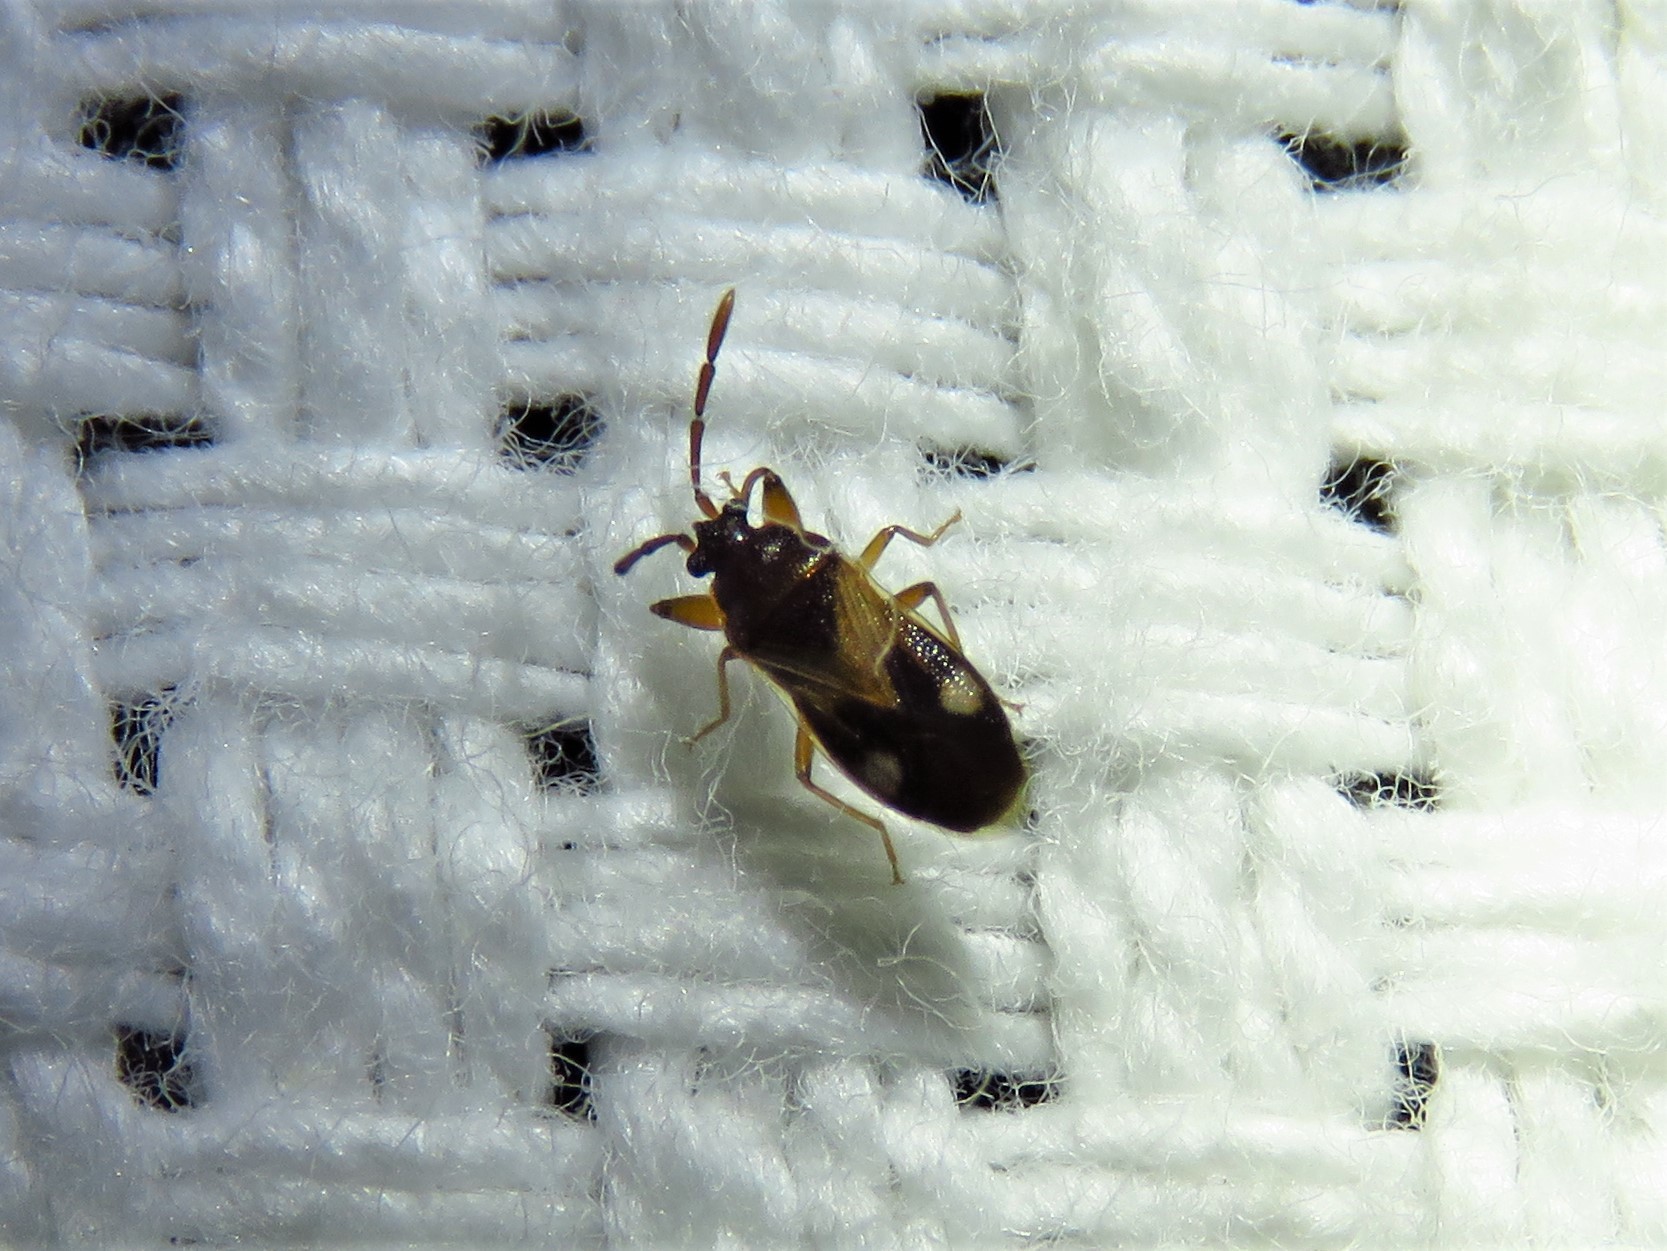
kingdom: Animalia
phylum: Arthropoda
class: Insecta
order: Hemiptera
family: Rhyparochromidae
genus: Tempyra
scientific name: Tempyra biguttula
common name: Seed bug
